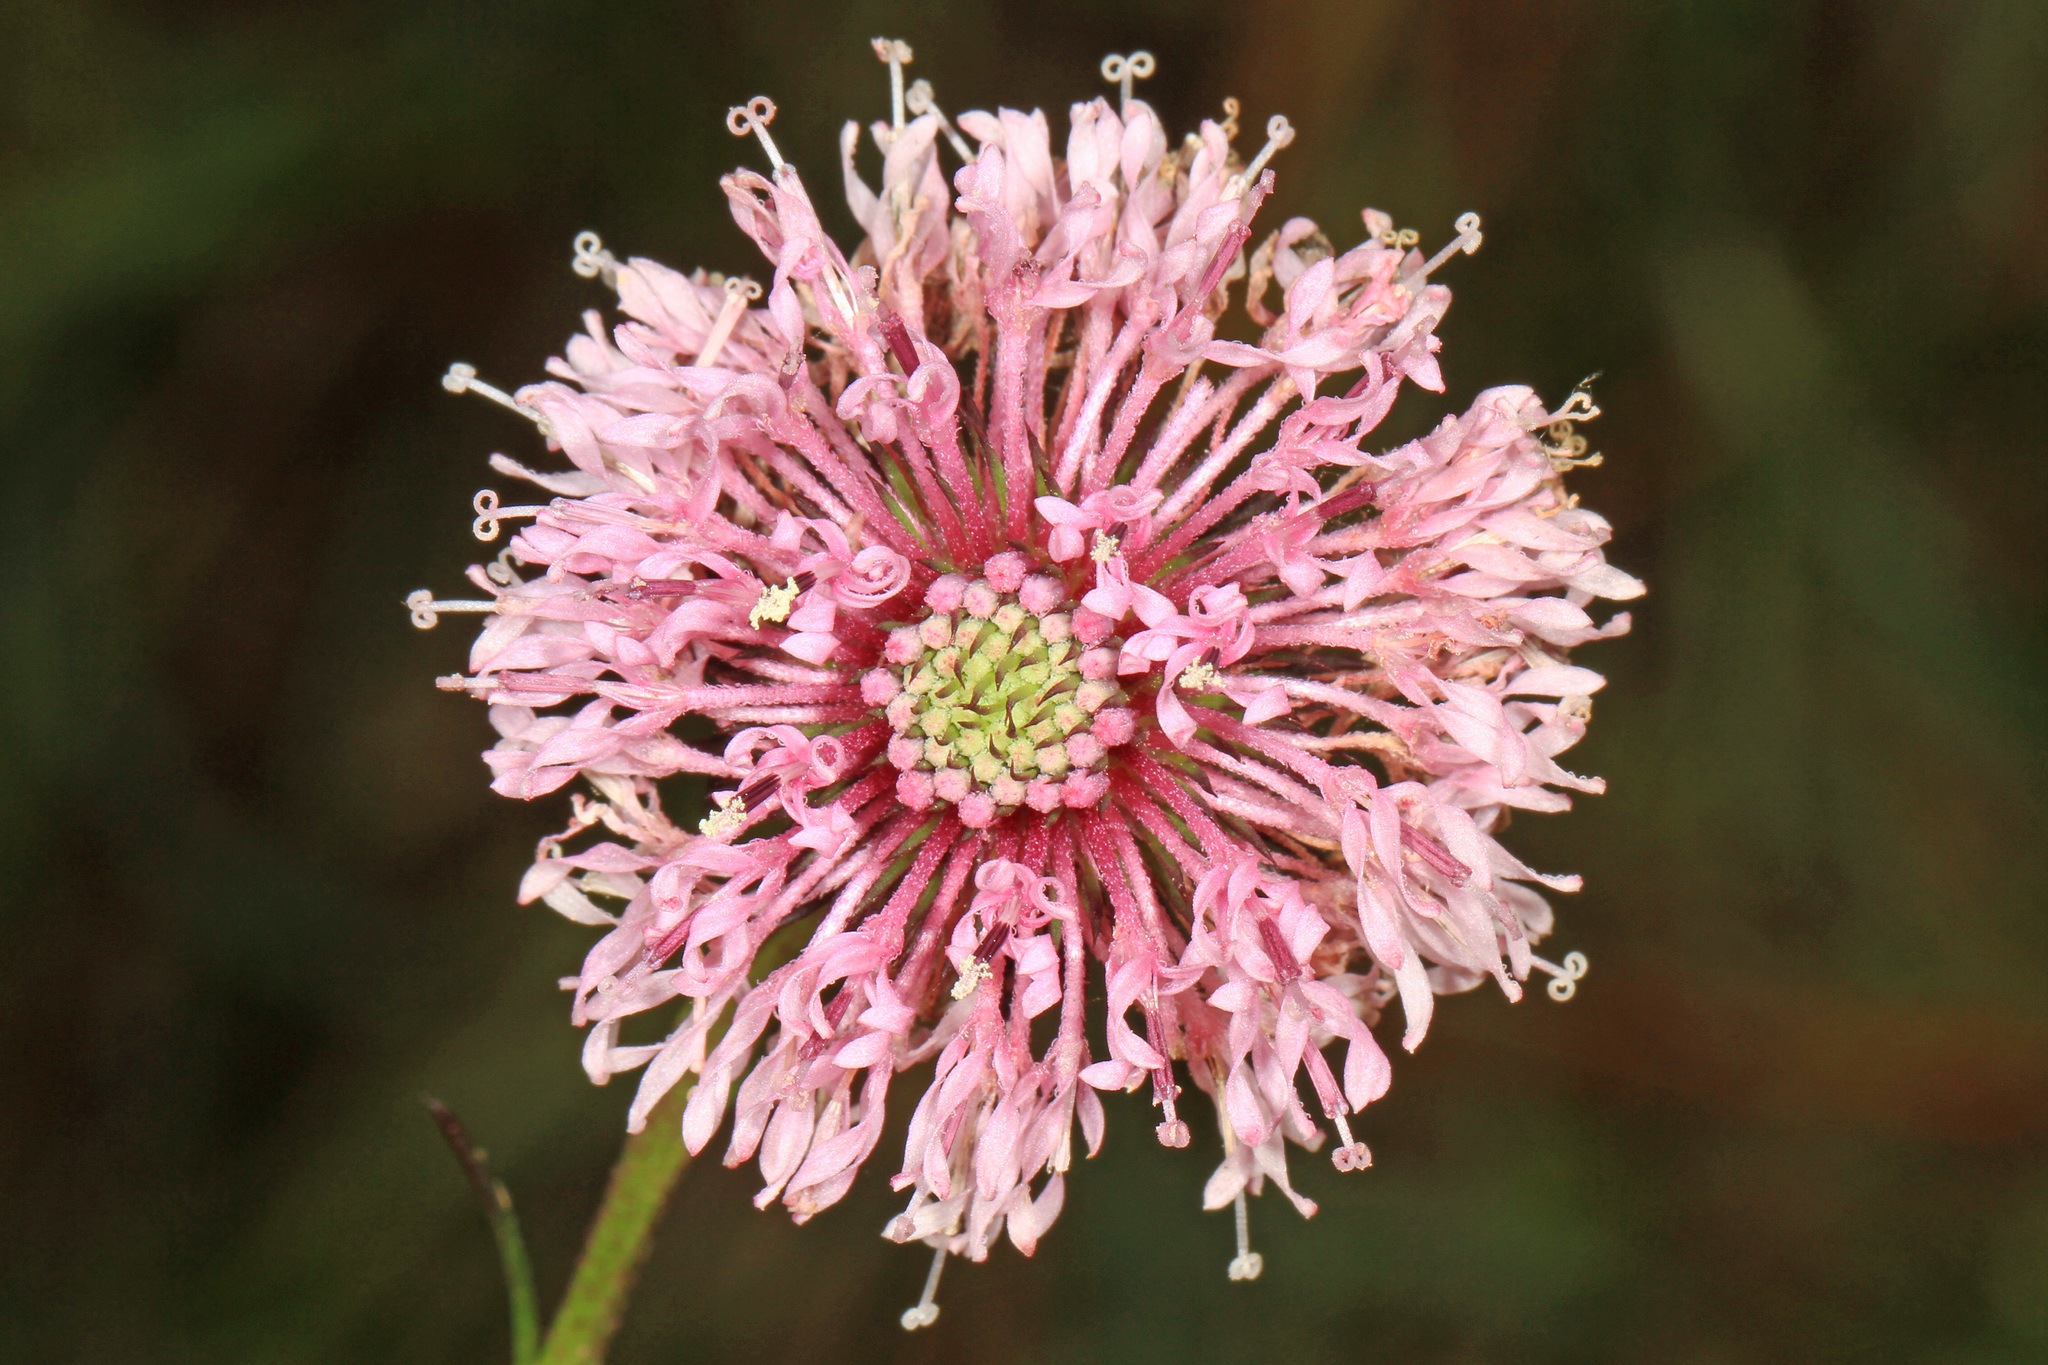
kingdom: Plantae
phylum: Tracheophyta
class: Magnoliopsida
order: Asterales
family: Asteraceae
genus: Marshallia
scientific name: Marshallia graminifolia
